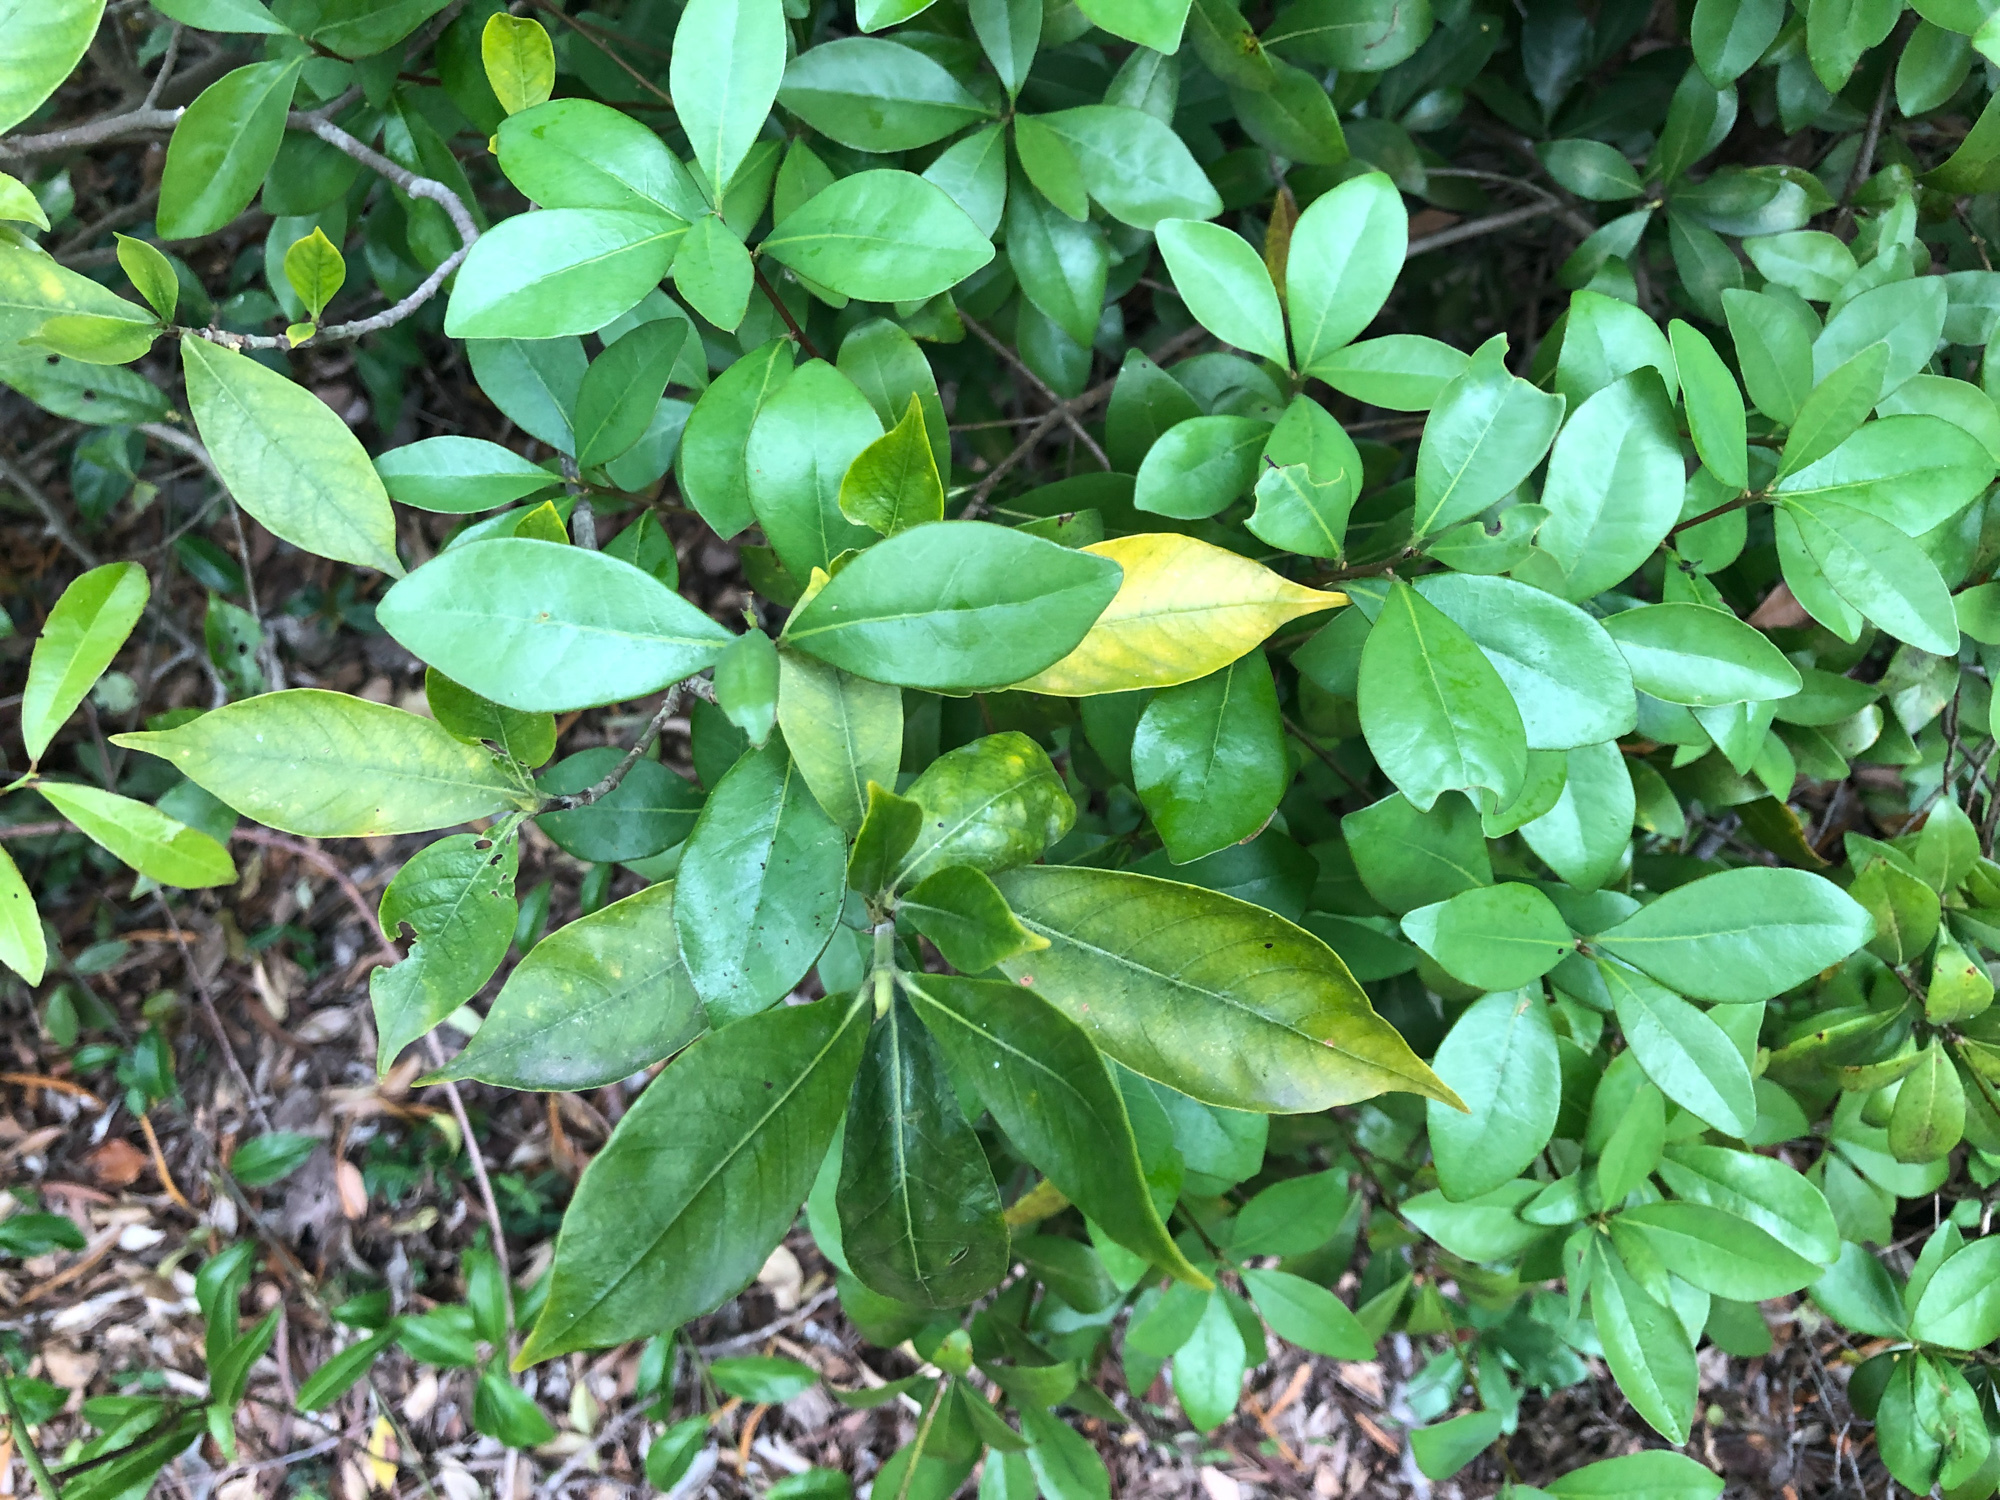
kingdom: Plantae
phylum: Tracheophyta
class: Magnoliopsida
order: Laurales
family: Lauraceae
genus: Litsea
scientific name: Litsea rotundifolia
